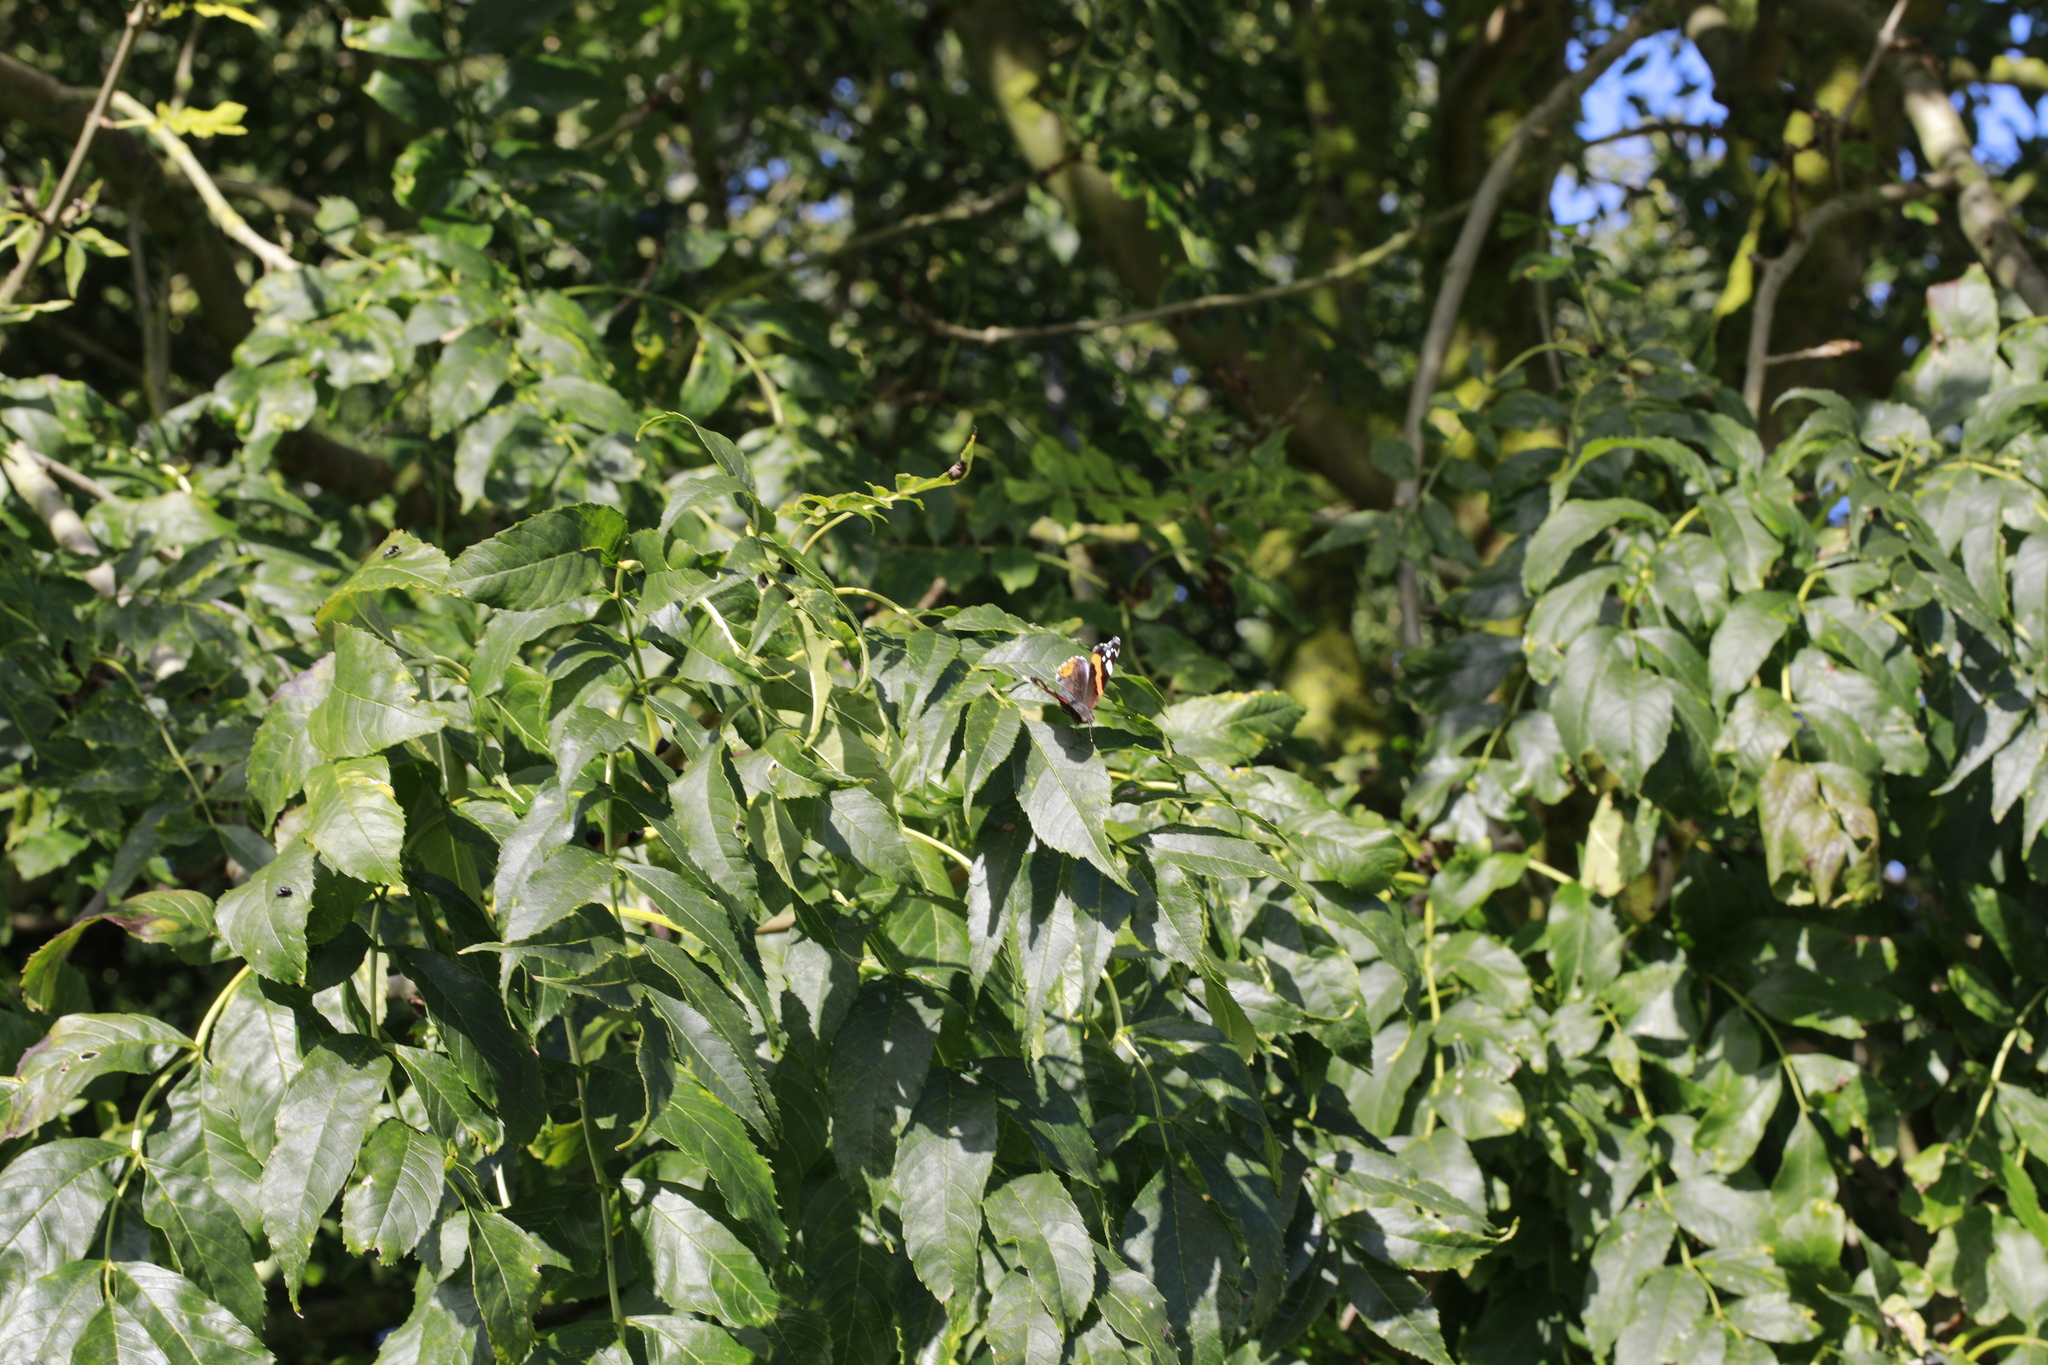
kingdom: Animalia
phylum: Arthropoda
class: Insecta
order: Lepidoptera
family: Nymphalidae
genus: Vanessa
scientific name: Vanessa atalanta
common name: Red admiral
